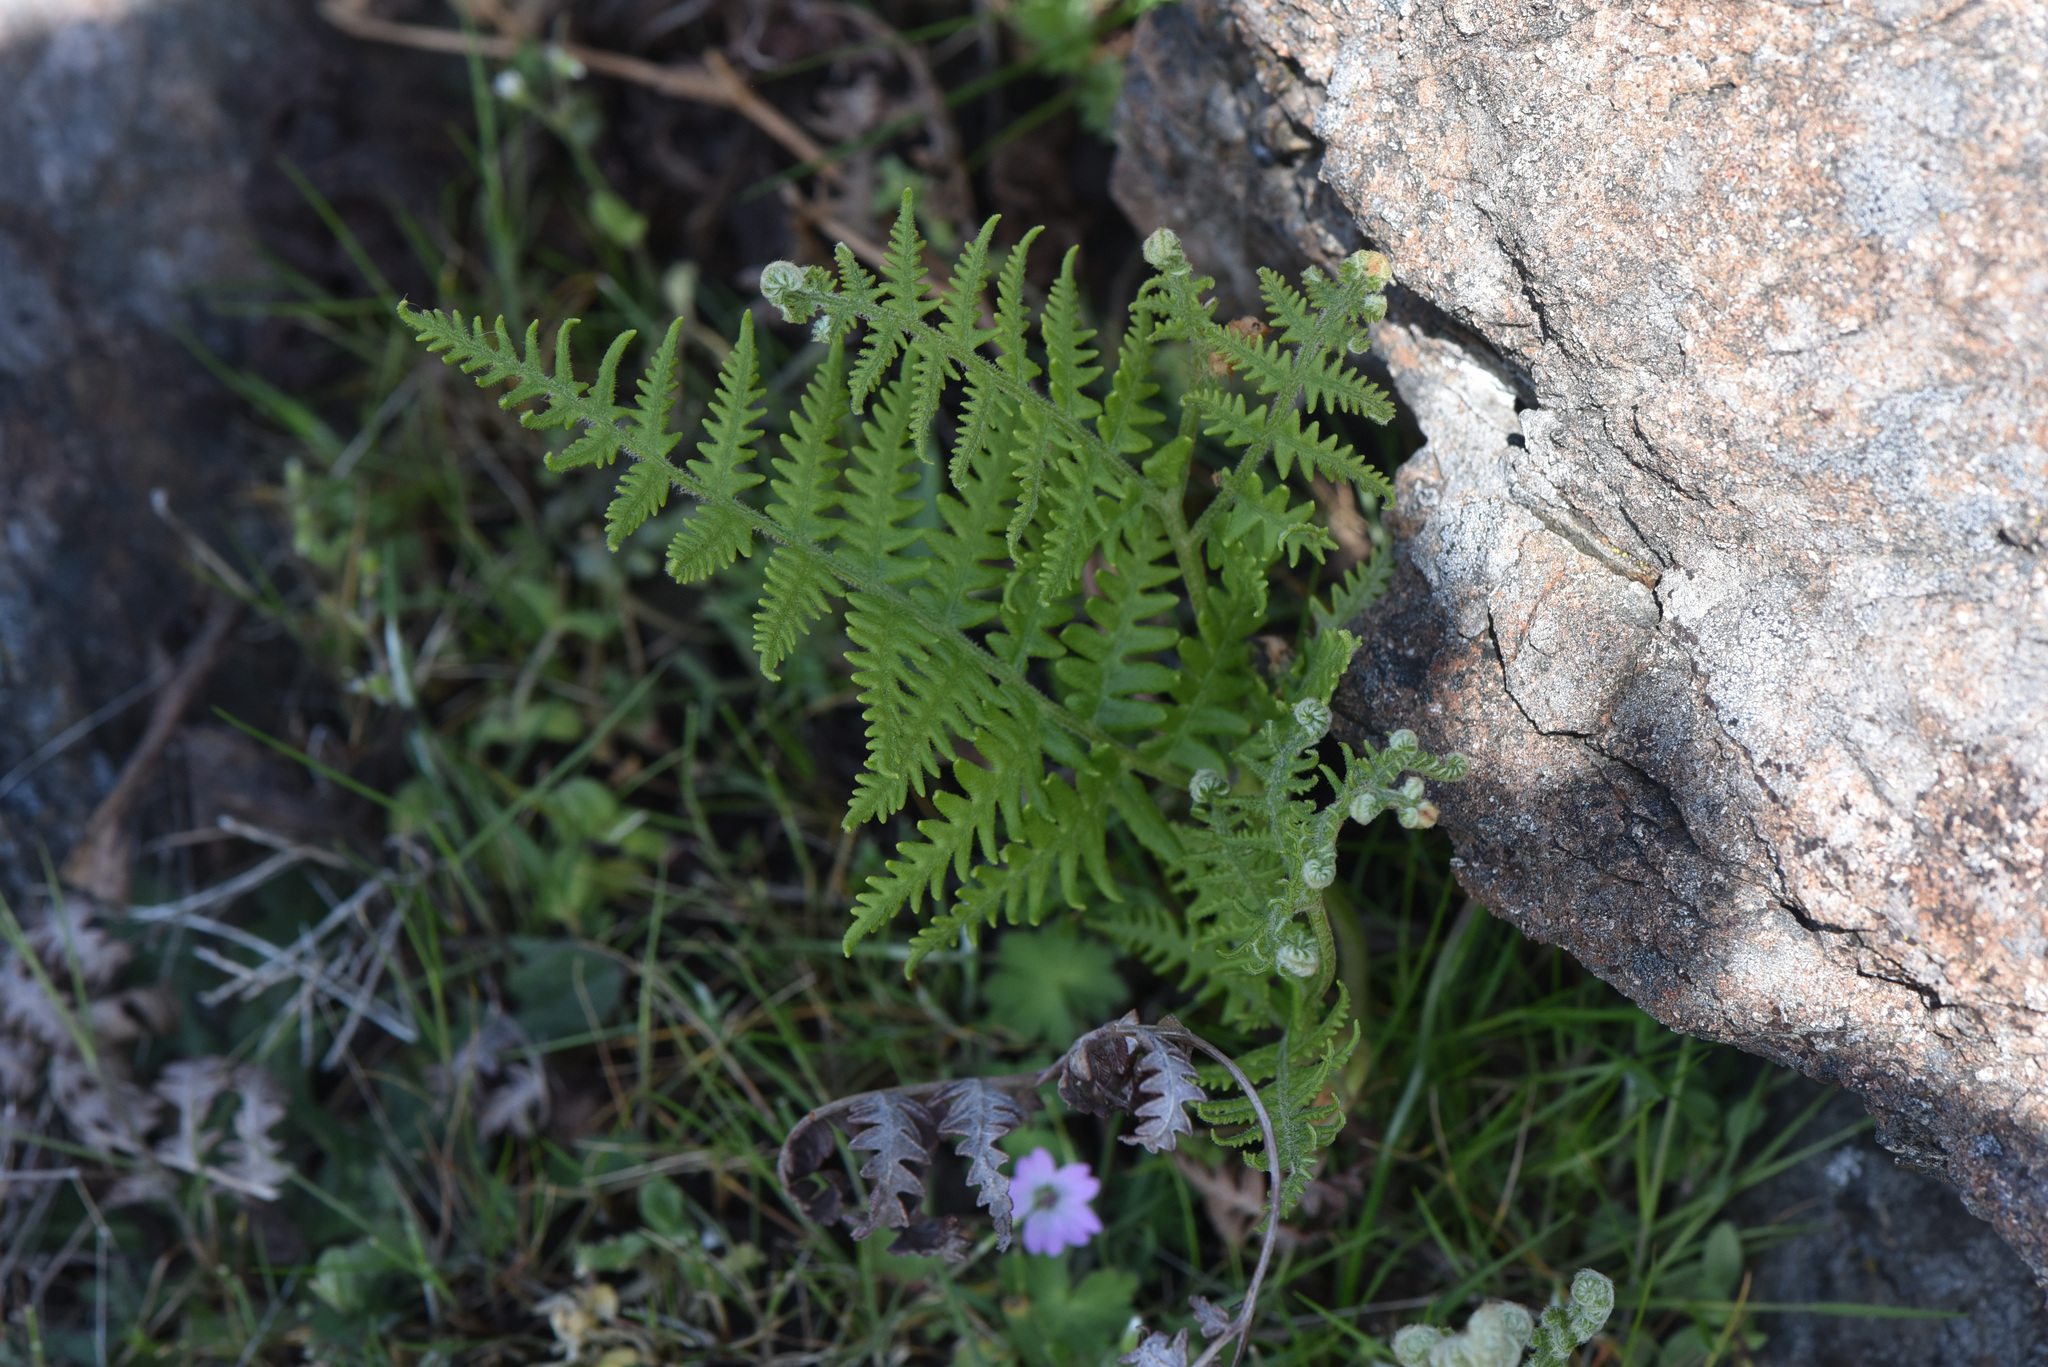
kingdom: Plantae
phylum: Tracheophyta
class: Polypodiopsida
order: Polypodiales
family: Dennstaedtiaceae
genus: Pteridium
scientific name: Pteridium aquilinum
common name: Bracken
